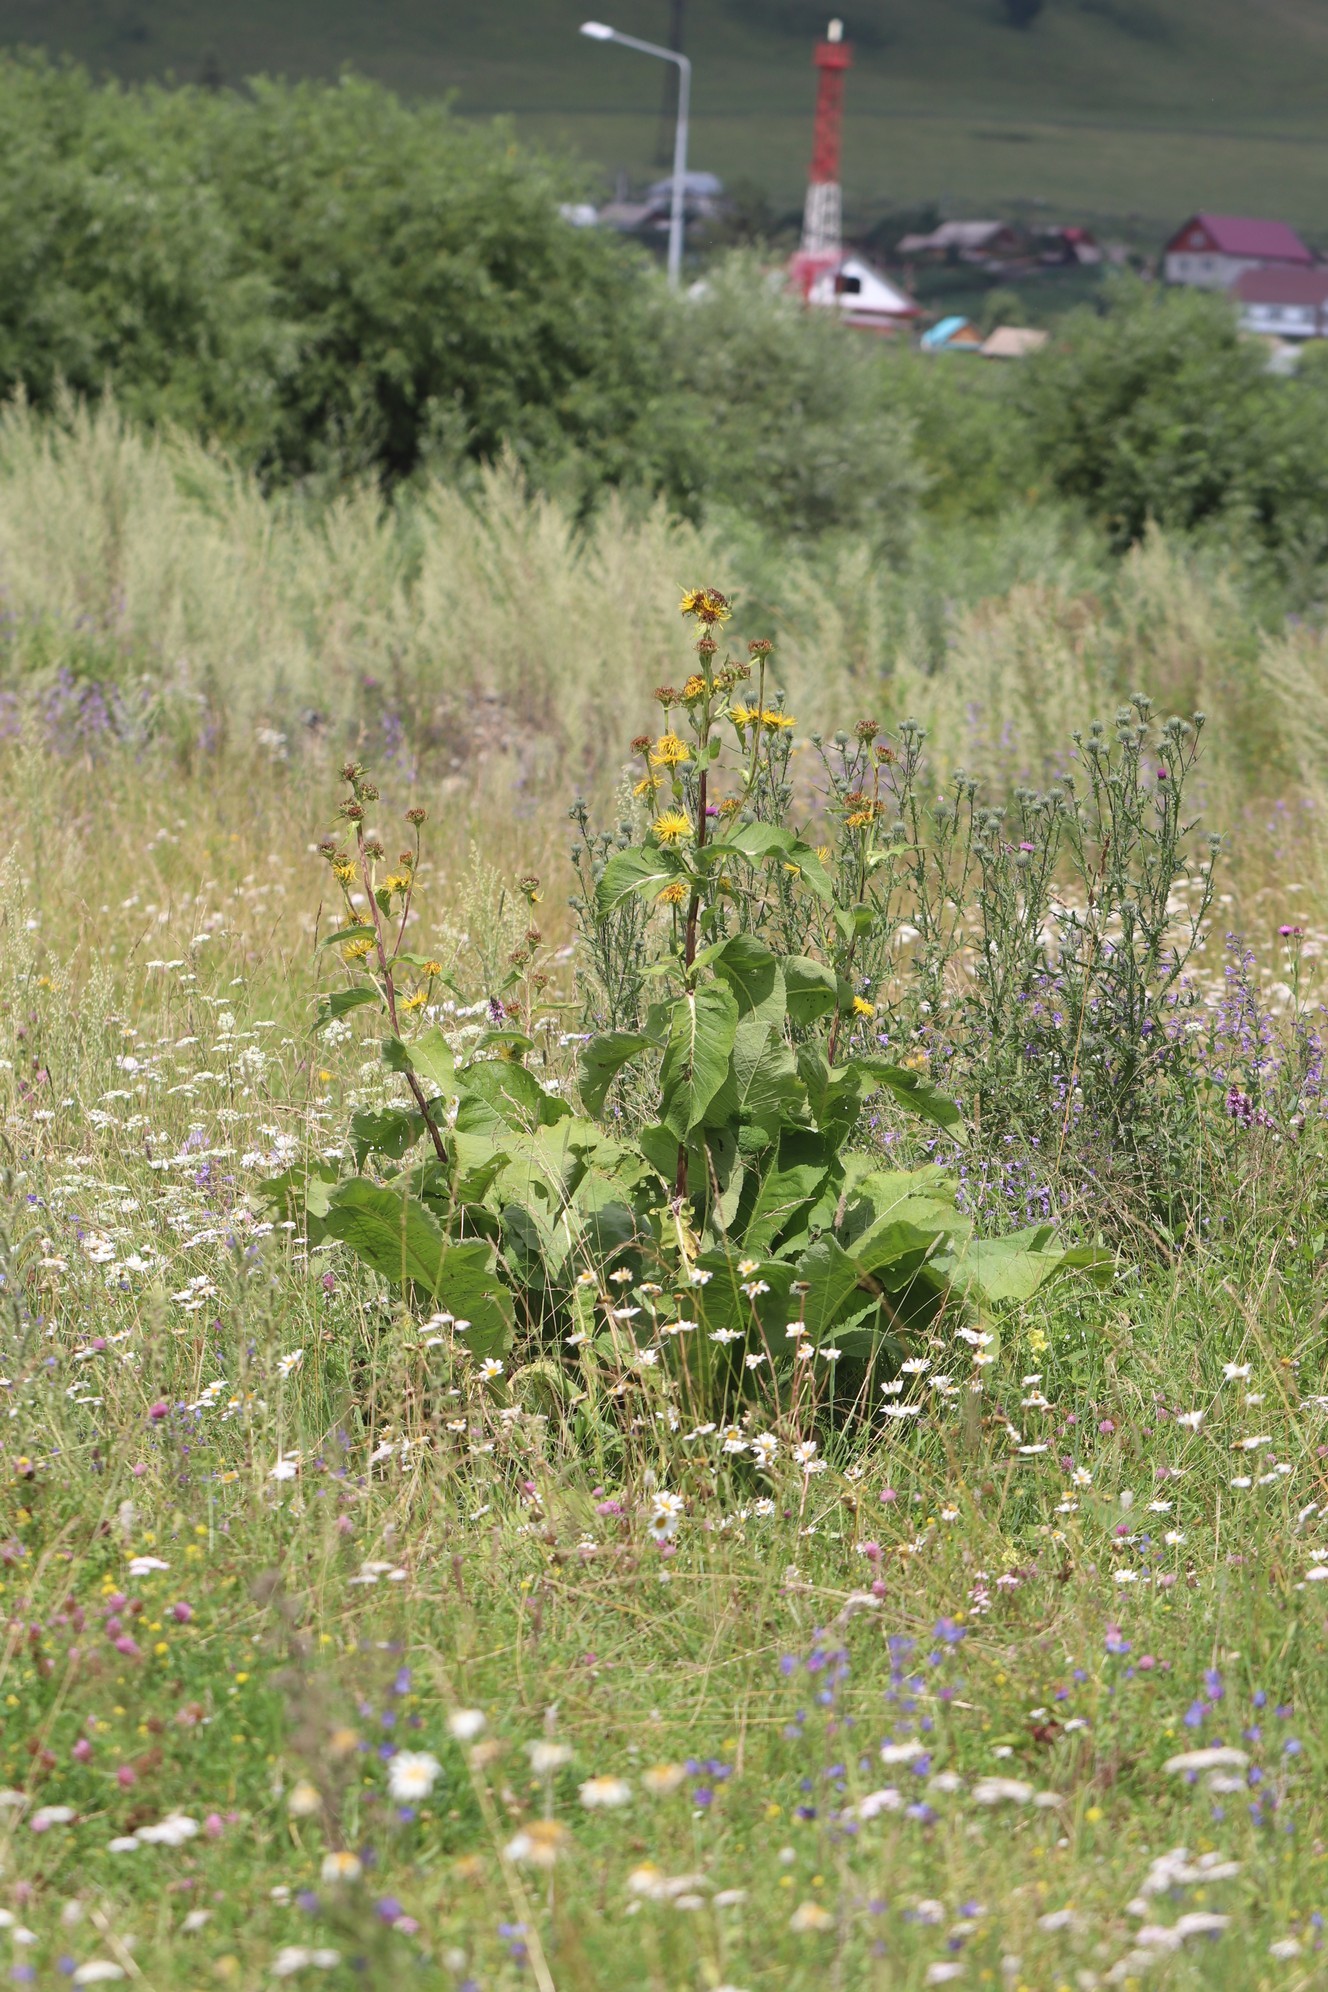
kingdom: Plantae
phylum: Tracheophyta
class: Magnoliopsida
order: Asterales
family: Asteraceae
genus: Inula
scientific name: Inula helenium
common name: Elecampane
